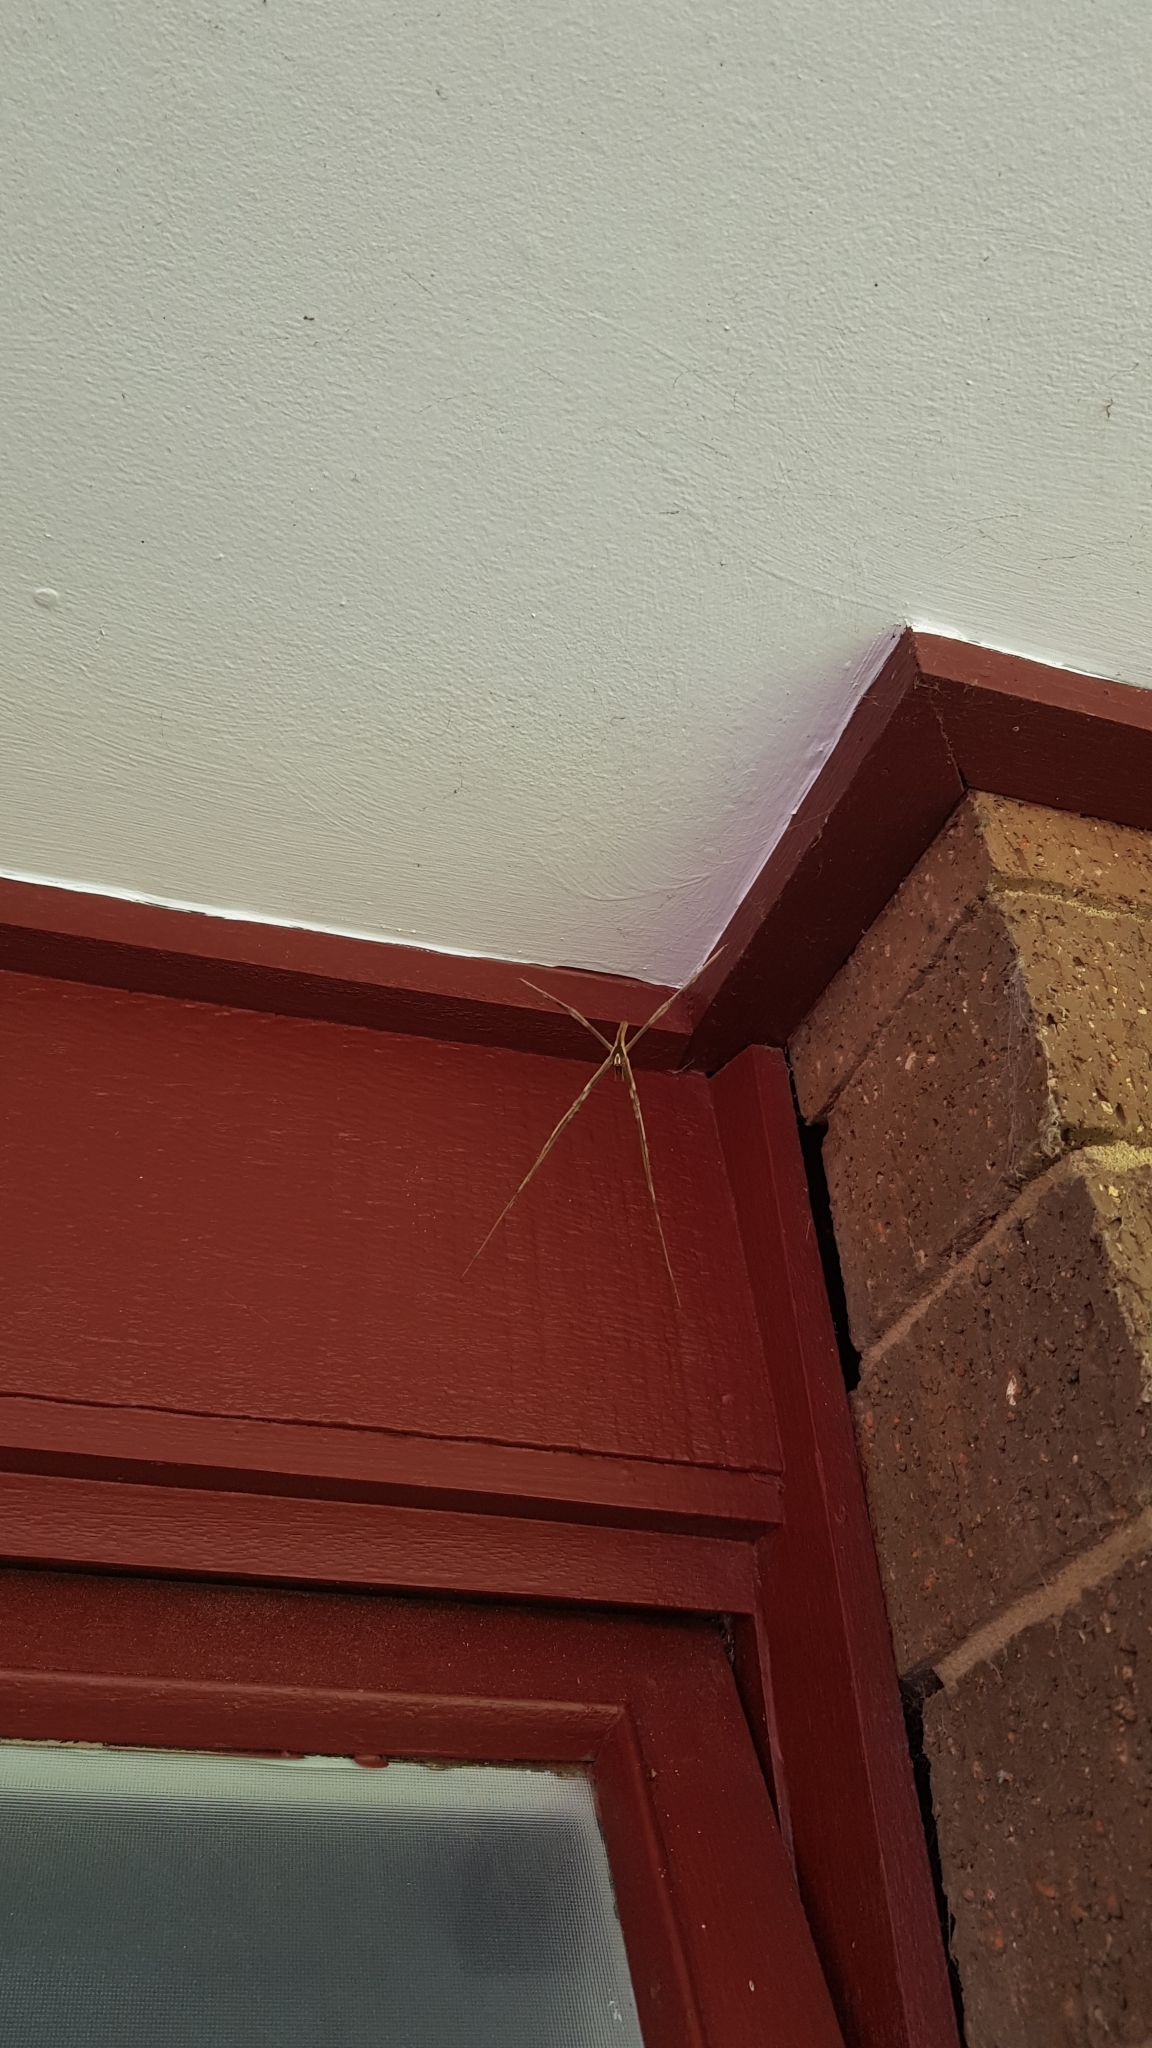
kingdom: Animalia
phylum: Arthropoda
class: Arachnida
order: Araneae
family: Deinopidae
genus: Deinopis
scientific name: Deinopis subrufa
